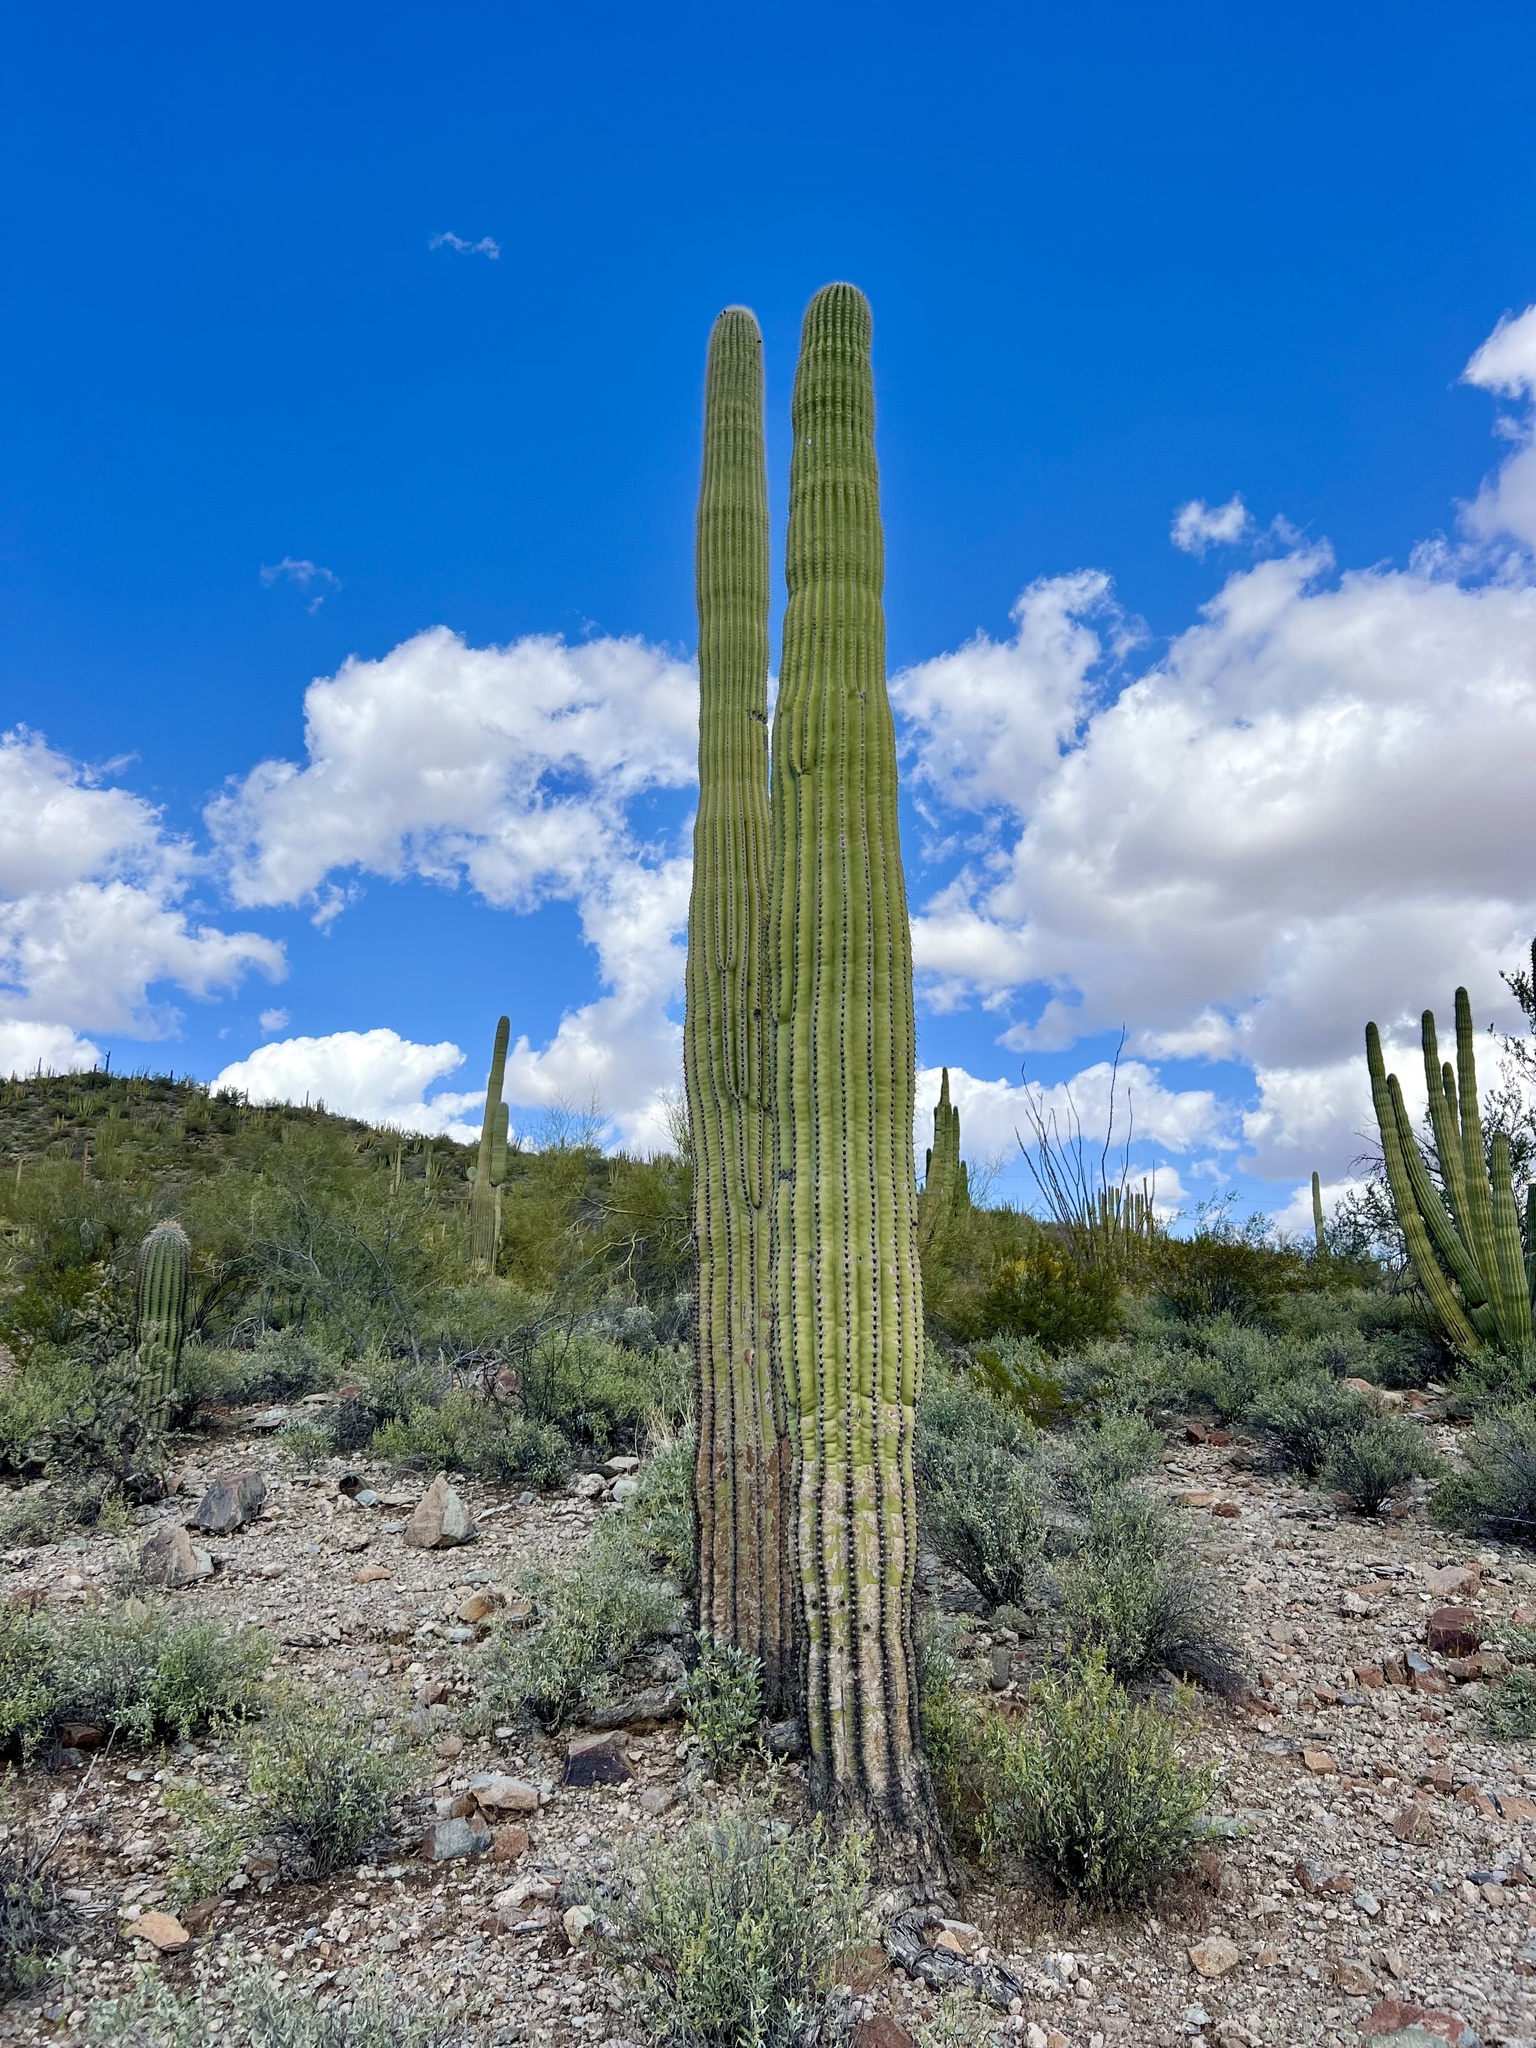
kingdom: Plantae
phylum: Tracheophyta
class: Magnoliopsida
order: Caryophyllales
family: Cactaceae
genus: Carnegiea
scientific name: Carnegiea gigantea
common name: Saguaro
